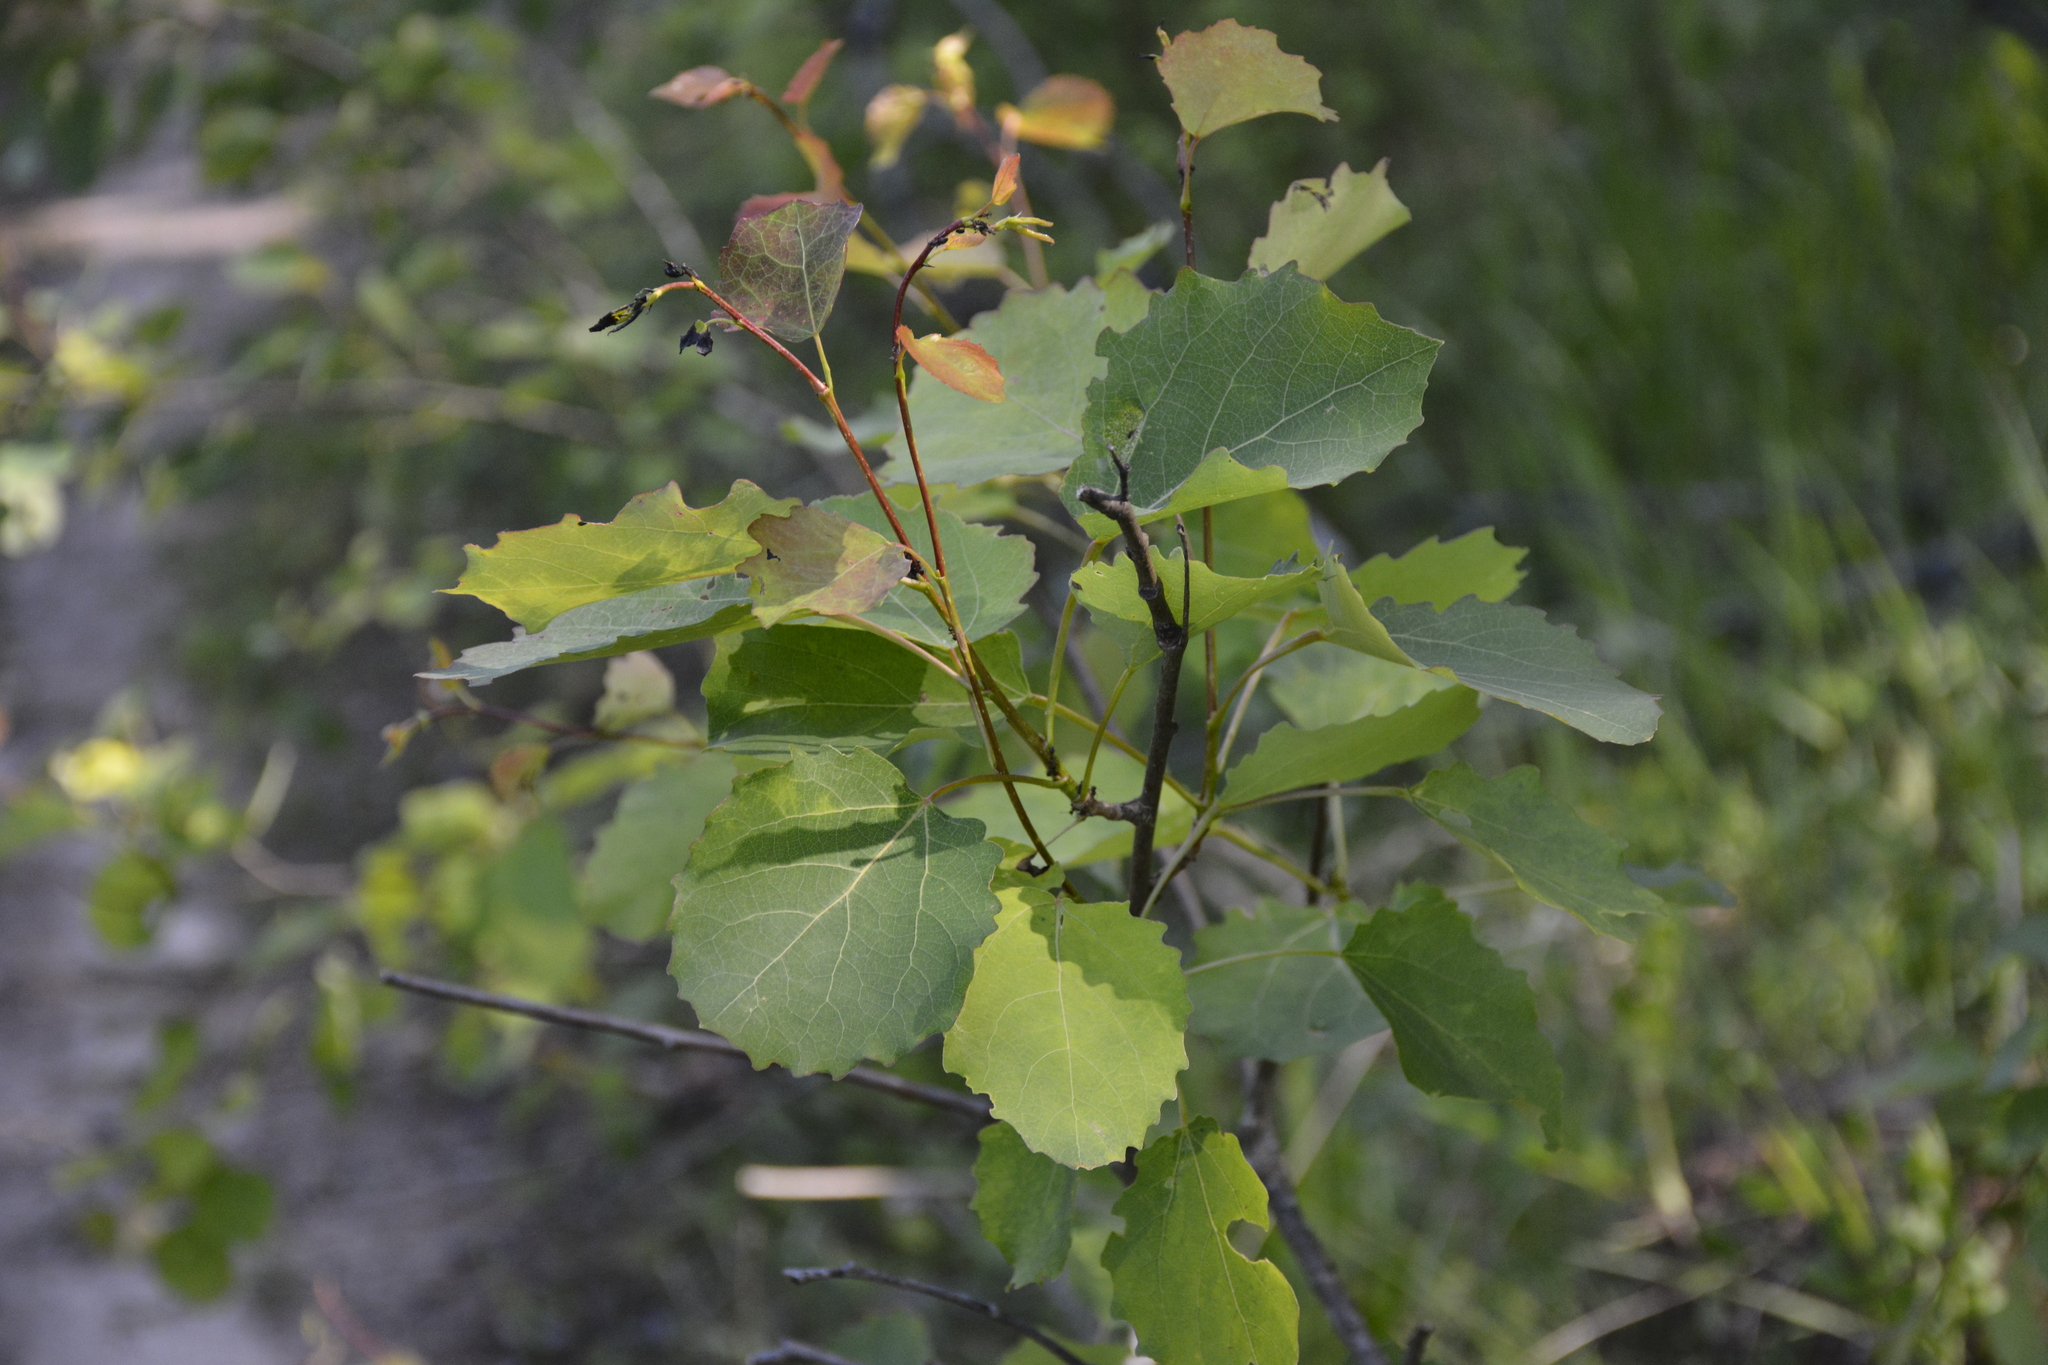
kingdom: Plantae
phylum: Tracheophyta
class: Magnoliopsida
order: Malpighiales
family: Salicaceae
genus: Populus
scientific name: Populus tremula
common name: European aspen
